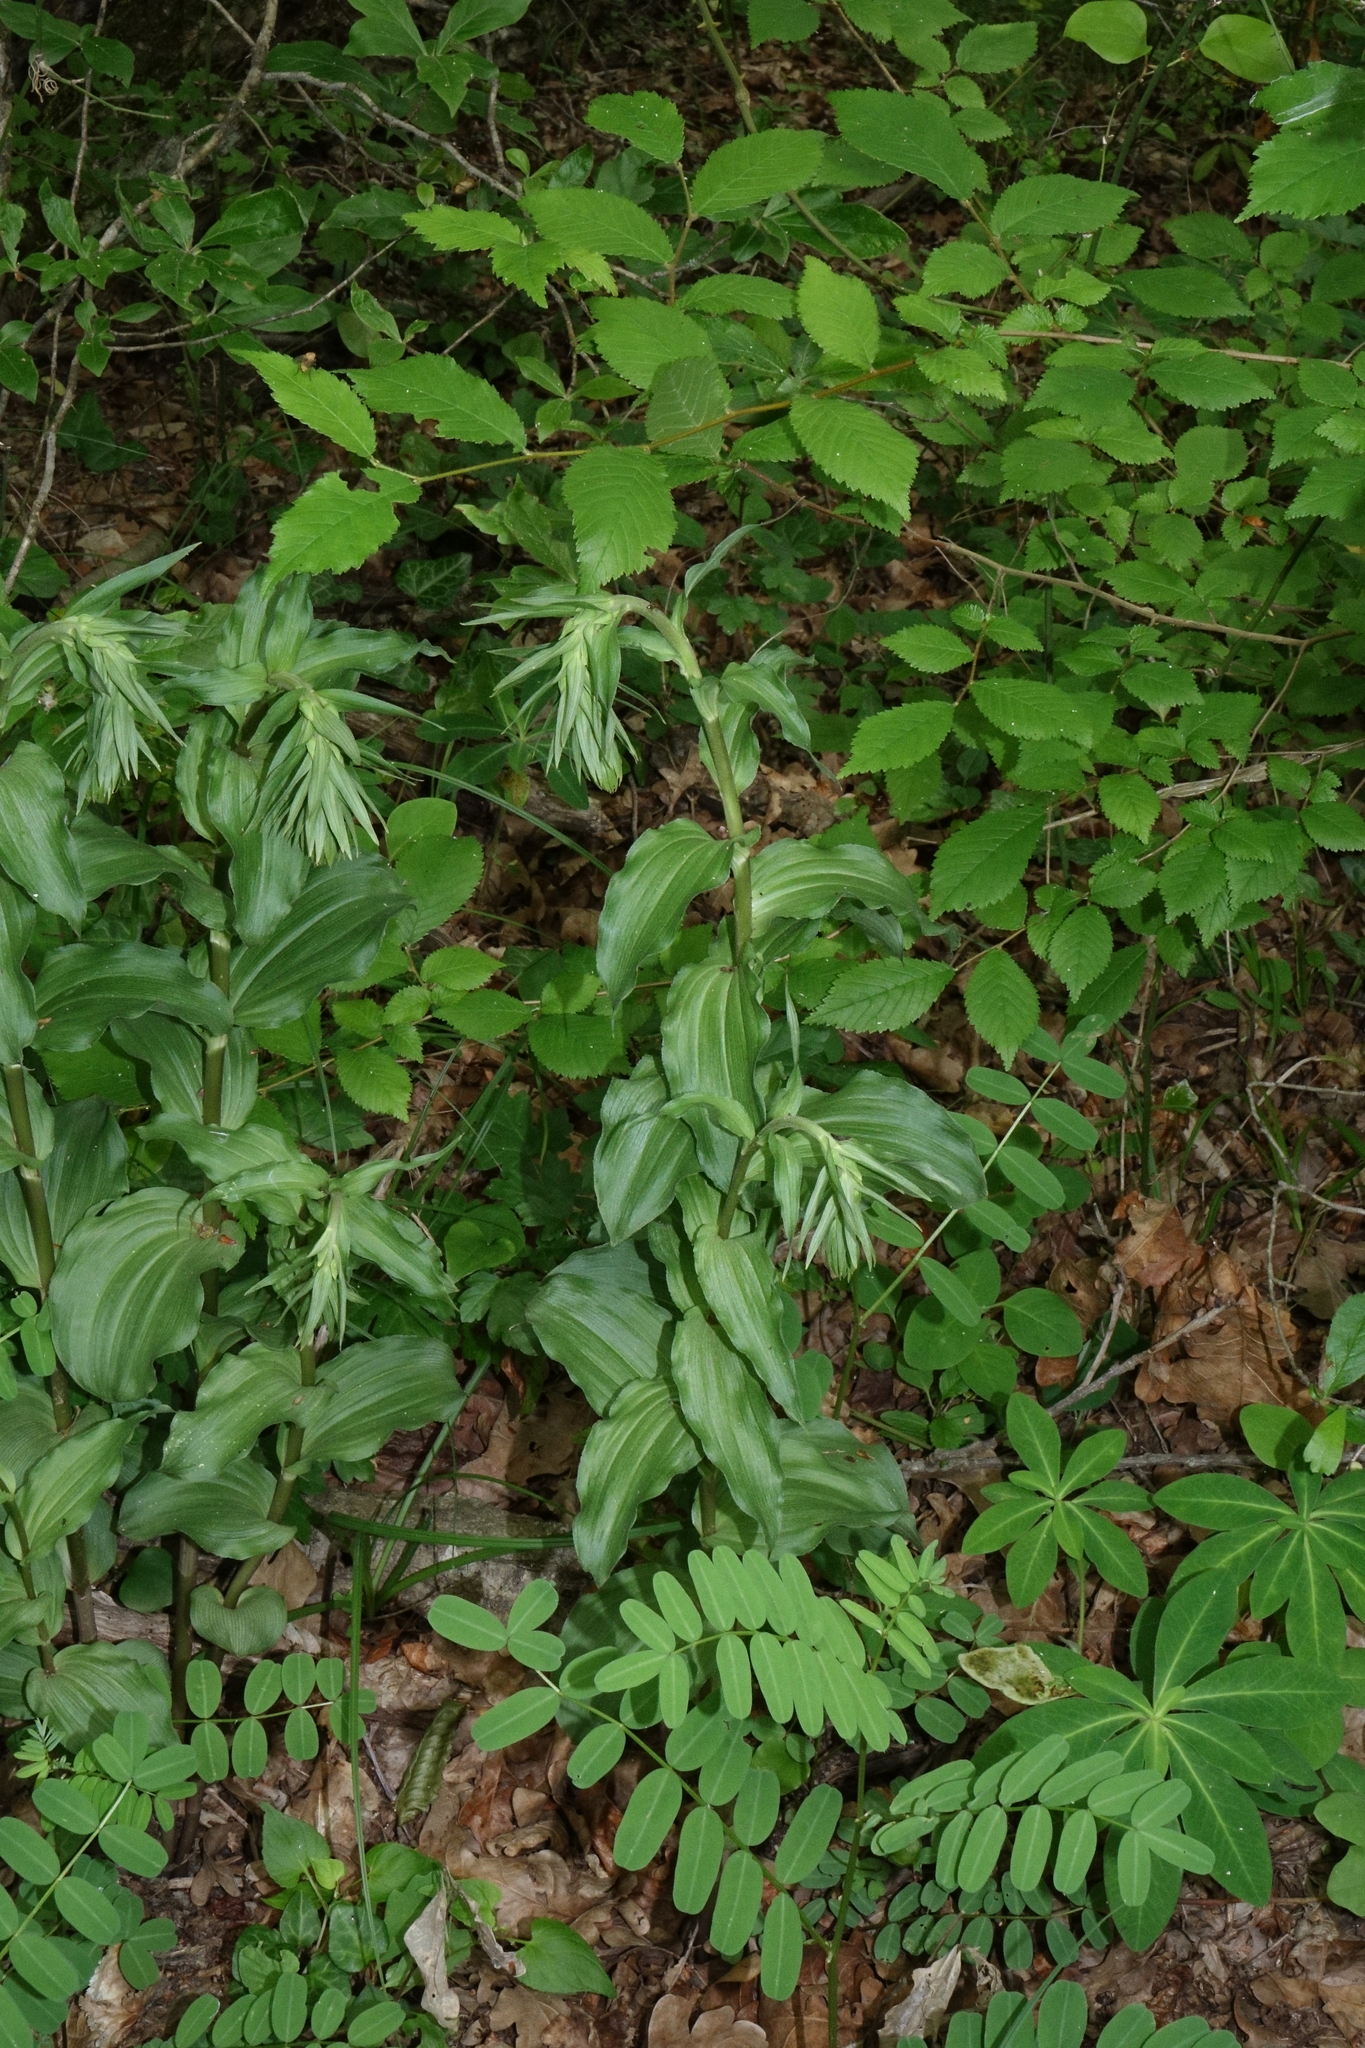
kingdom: Plantae
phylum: Tracheophyta
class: Liliopsida
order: Asparagales
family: Orchidaceae
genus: Epipactis
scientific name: Epipactis helleborine
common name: Broad-leaved helleborine
